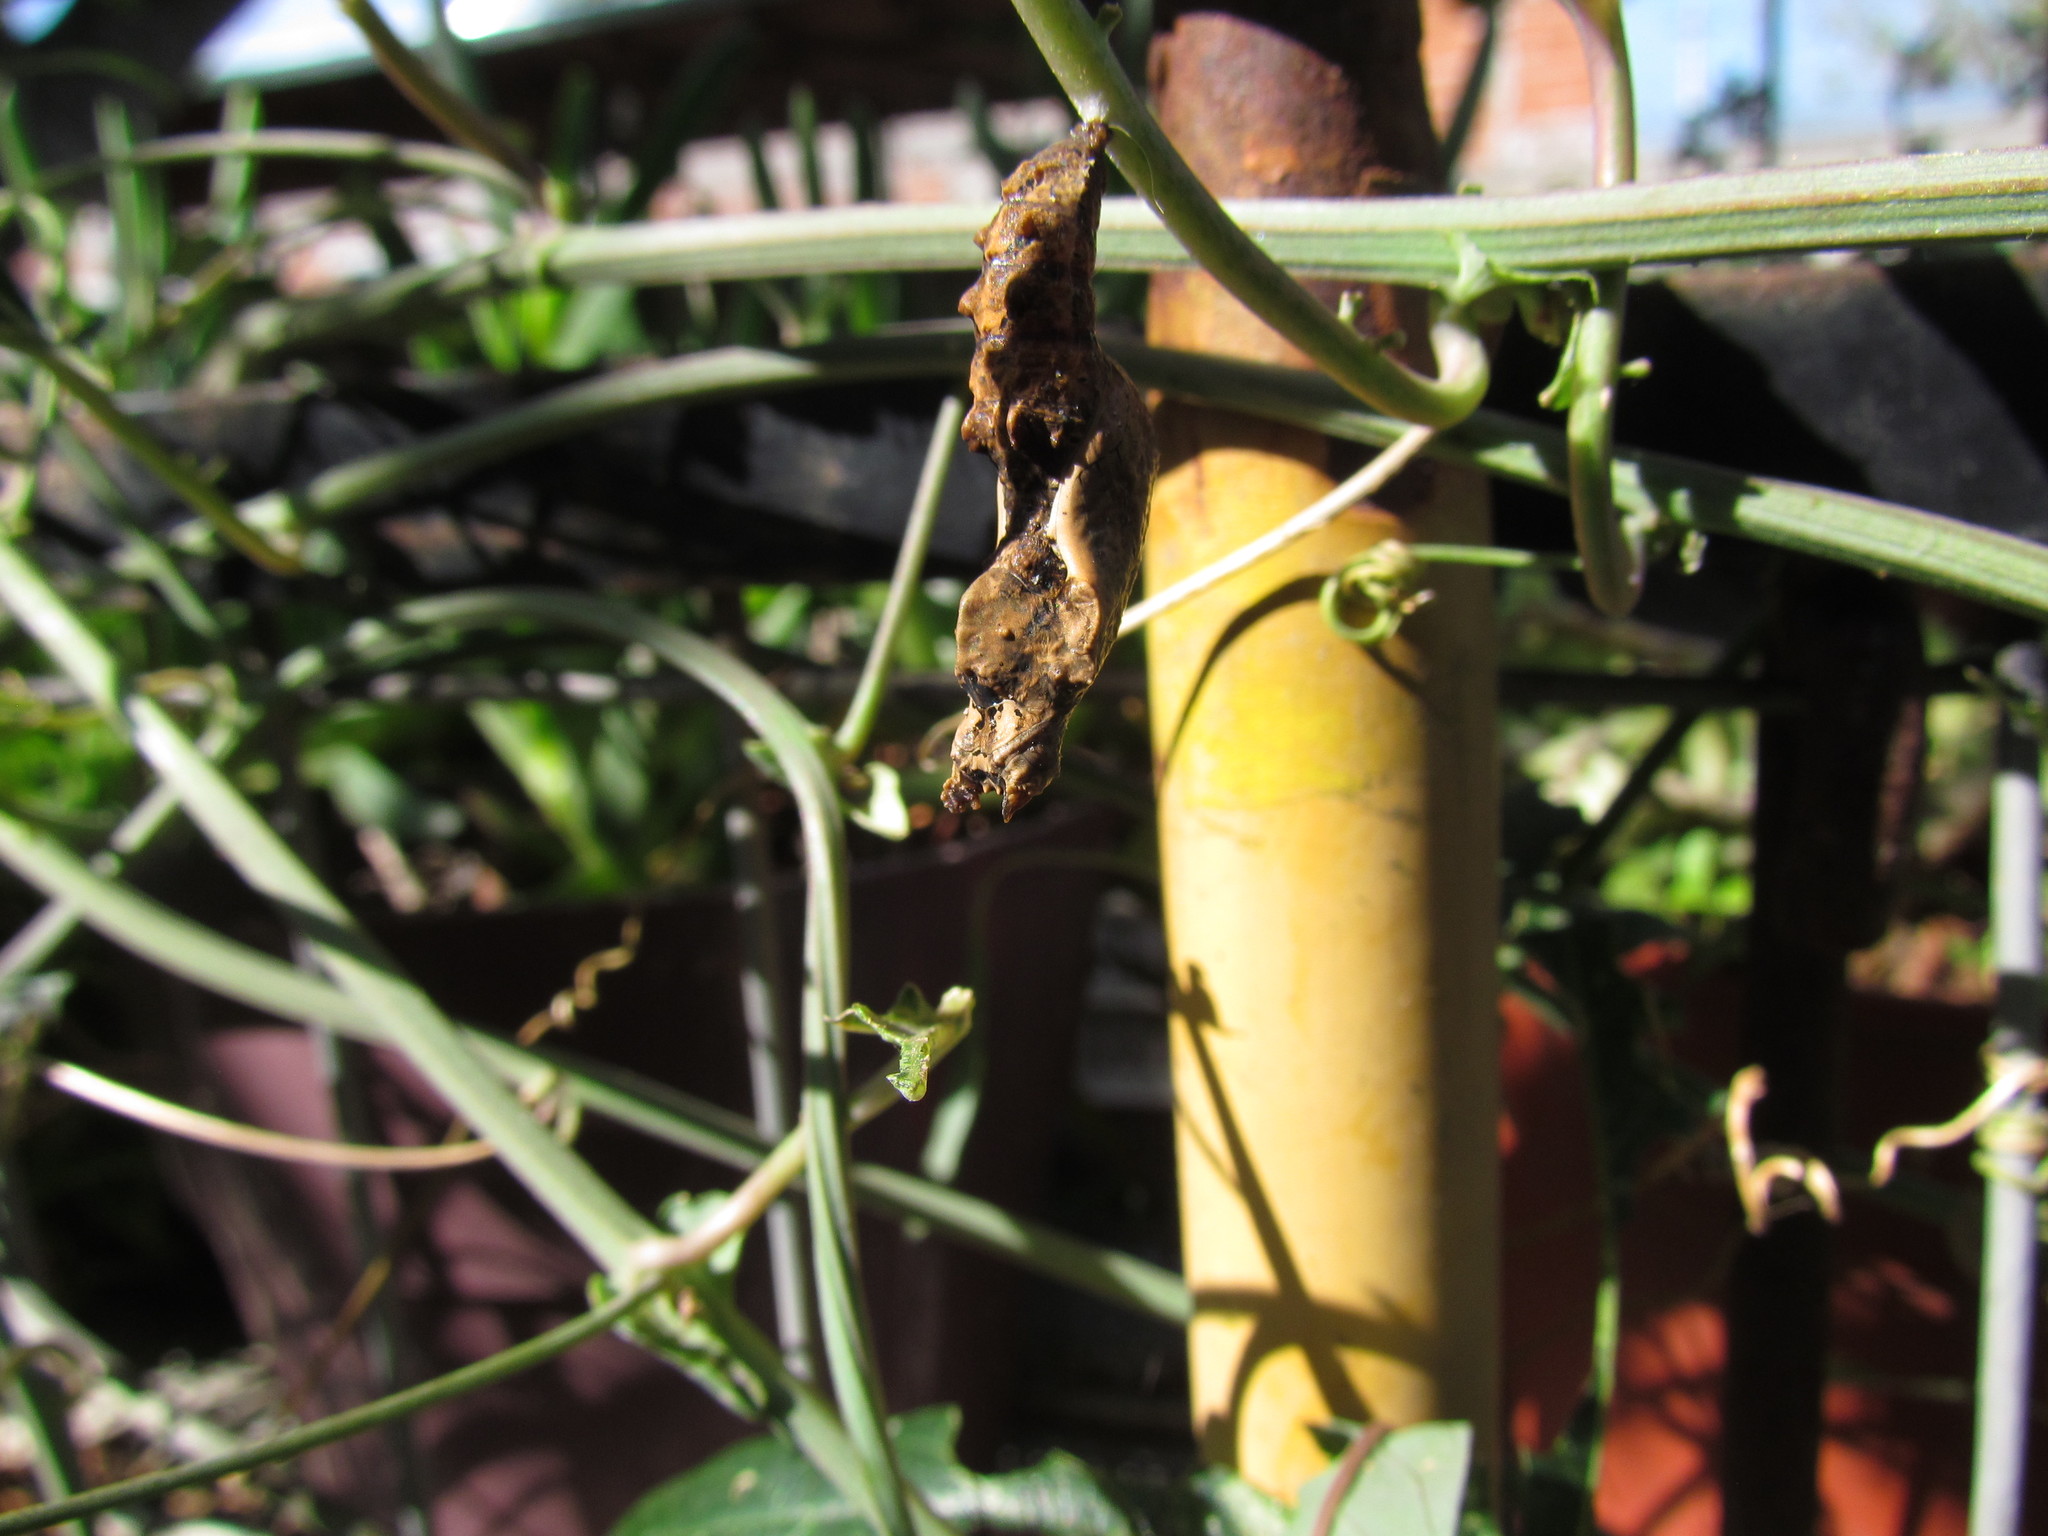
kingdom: Animalia
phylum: Arthropoda
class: Insecta
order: Lepidoptera
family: Nymphalidae
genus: Dione
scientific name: Dione vanillae
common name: Gulf fritillary
